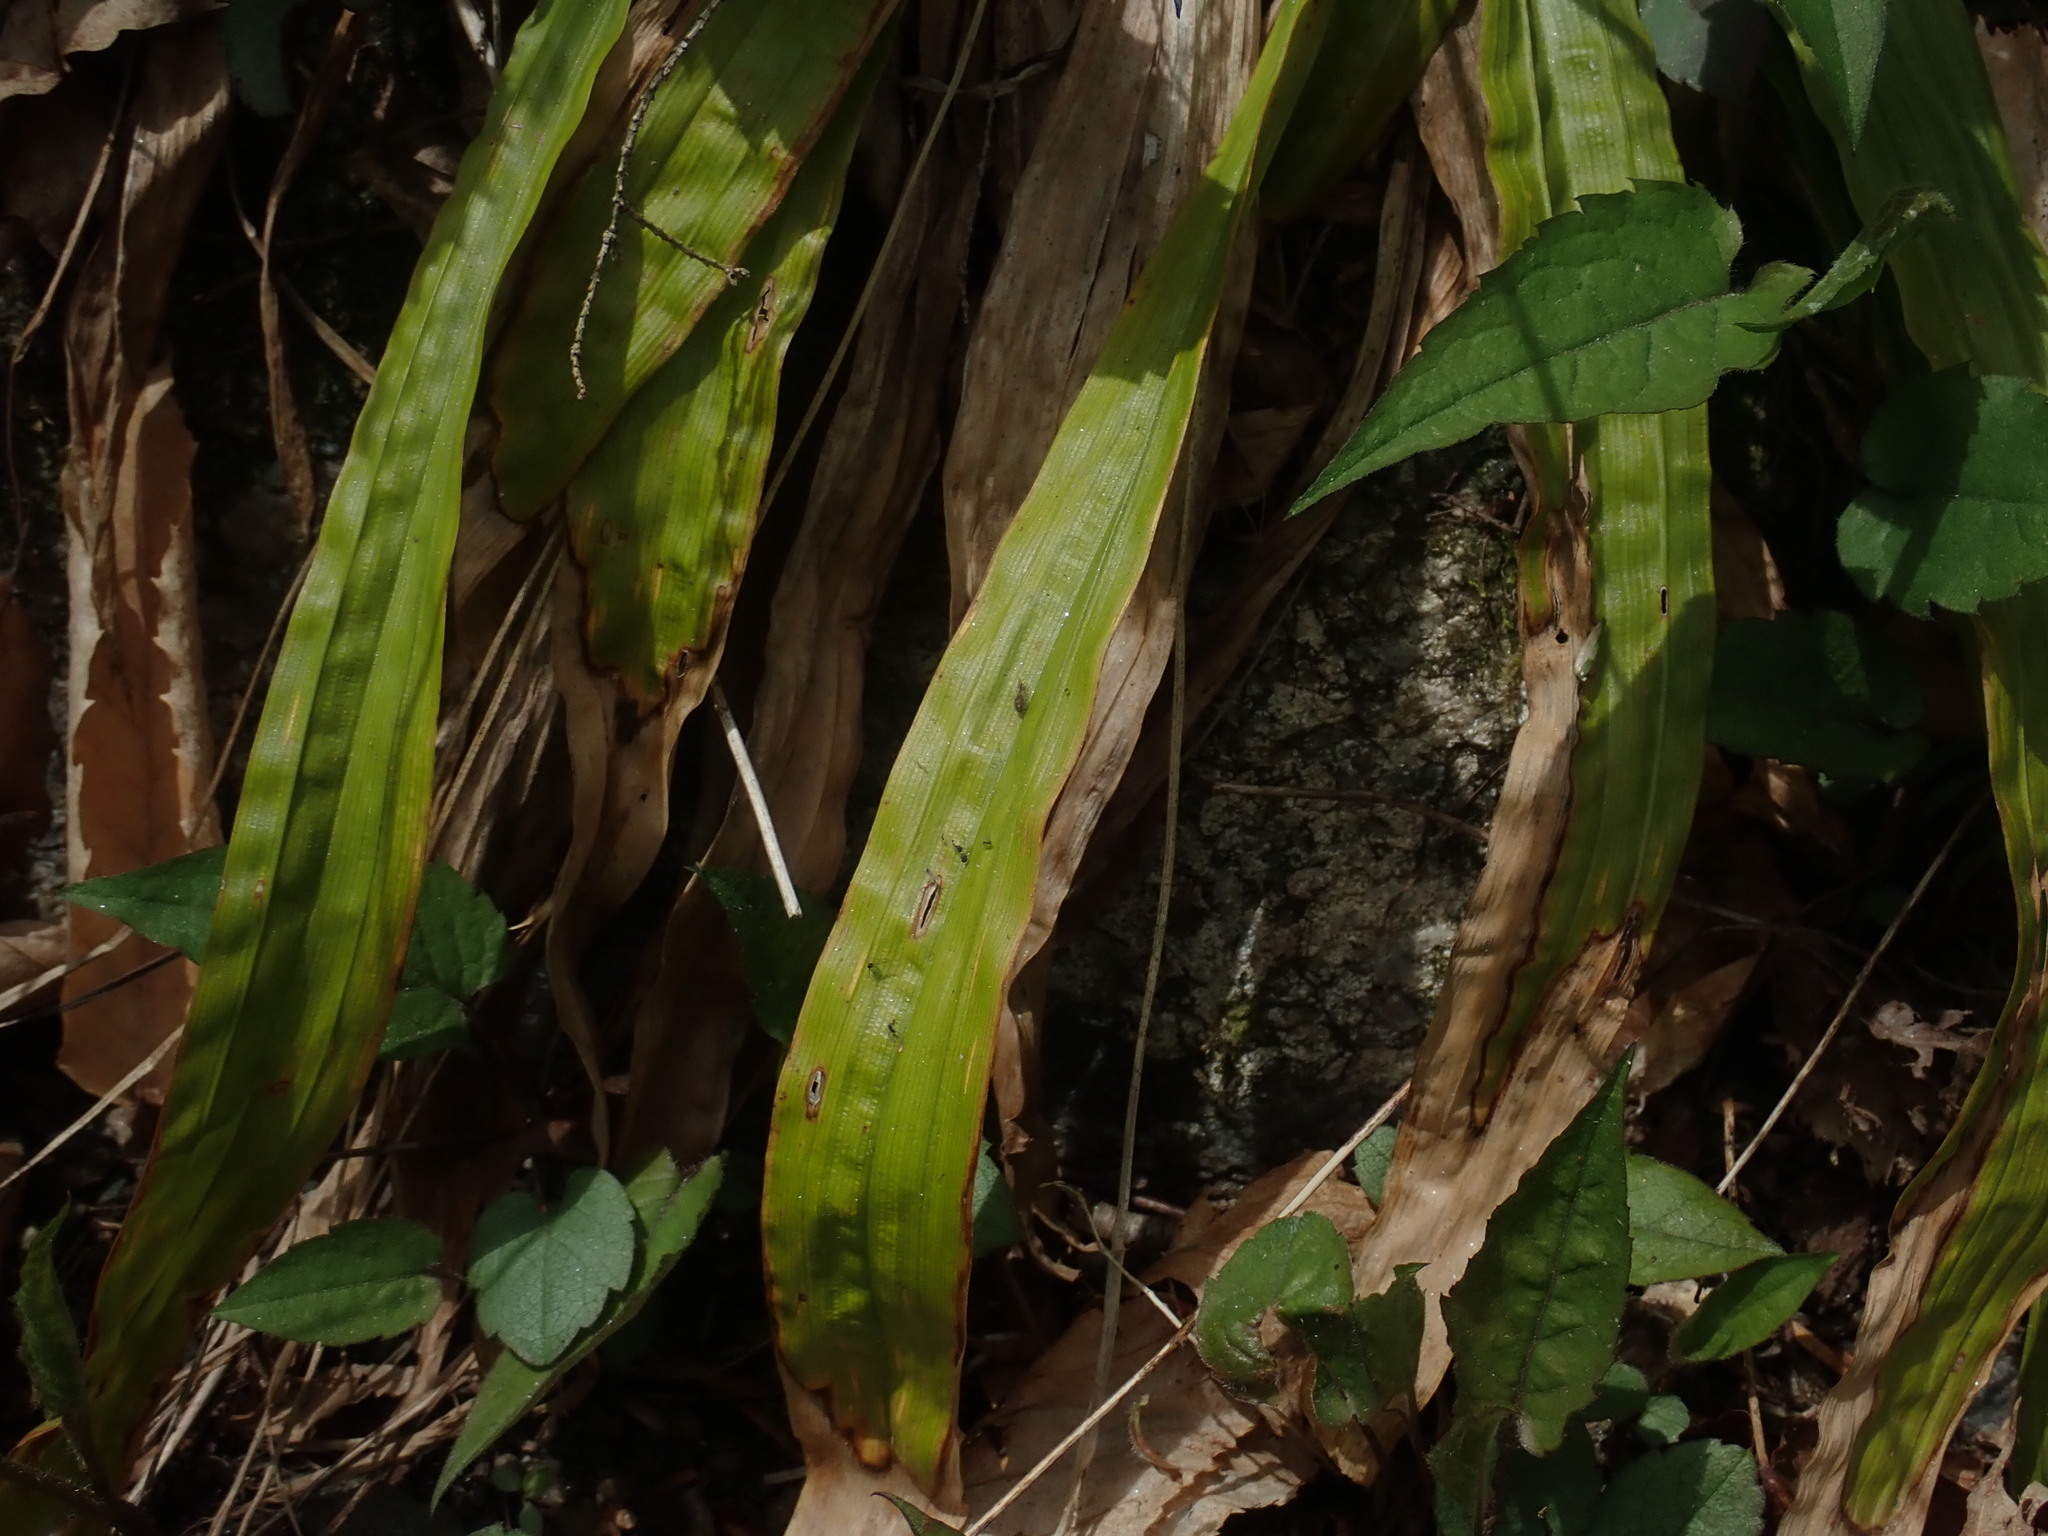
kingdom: Plantae
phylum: Tracheophyta
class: Liliopsida
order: Poales
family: Cyperaceae
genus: Carex
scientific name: Carex plantaginea
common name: Plantain-leaved sedge
